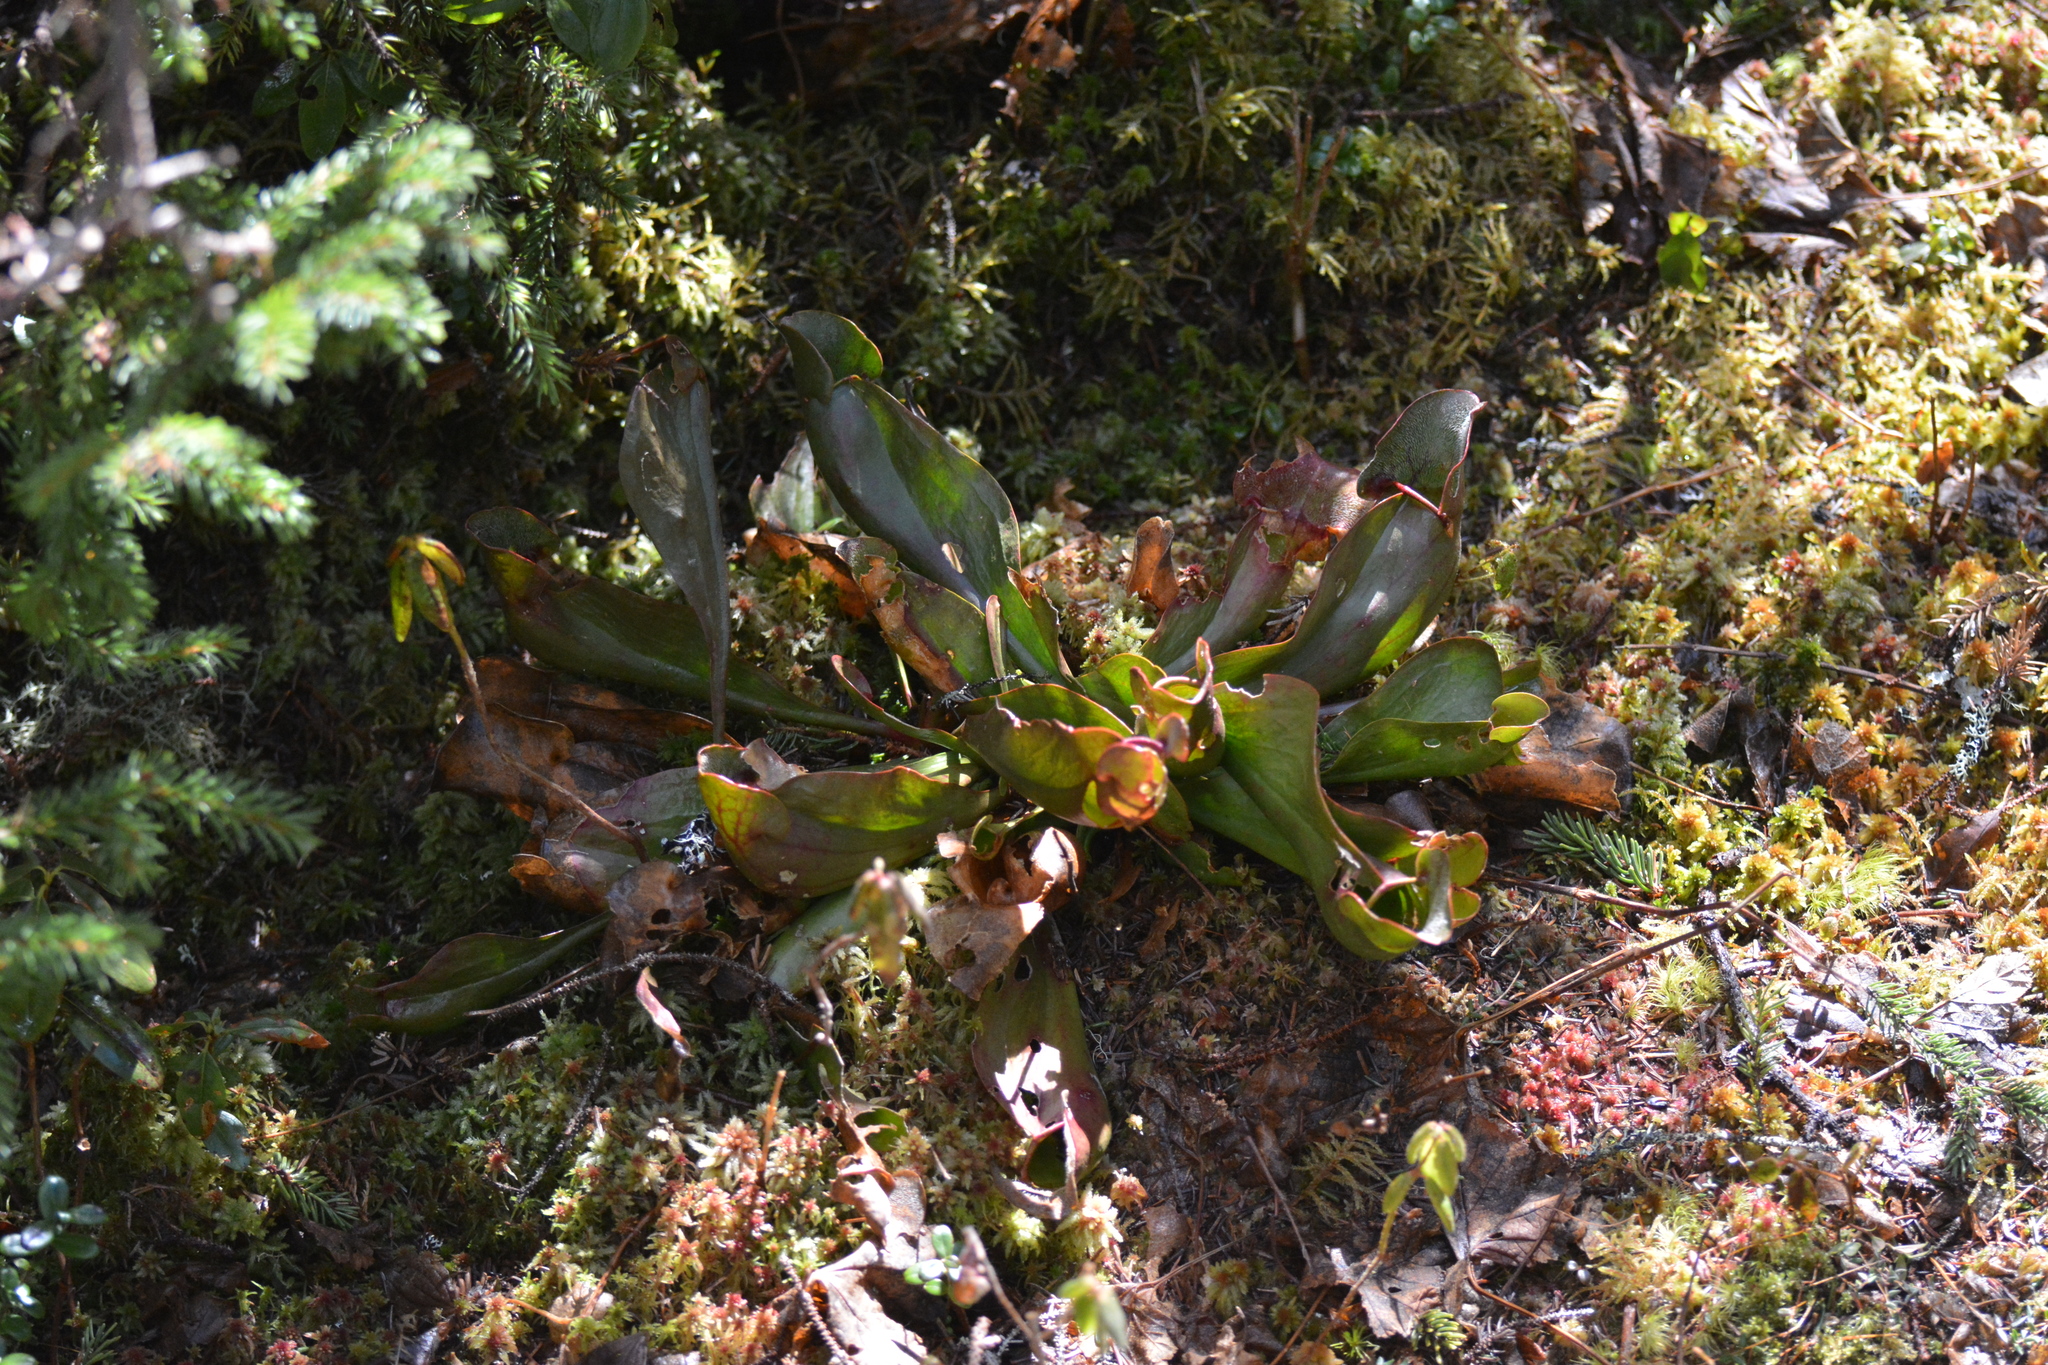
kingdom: Plantae
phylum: Tracheophyta
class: Magnoliopsida
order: Ericales
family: Sarraceniaceae
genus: Sarracenia
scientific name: Sarracenia purpurea
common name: Pitcherplant
